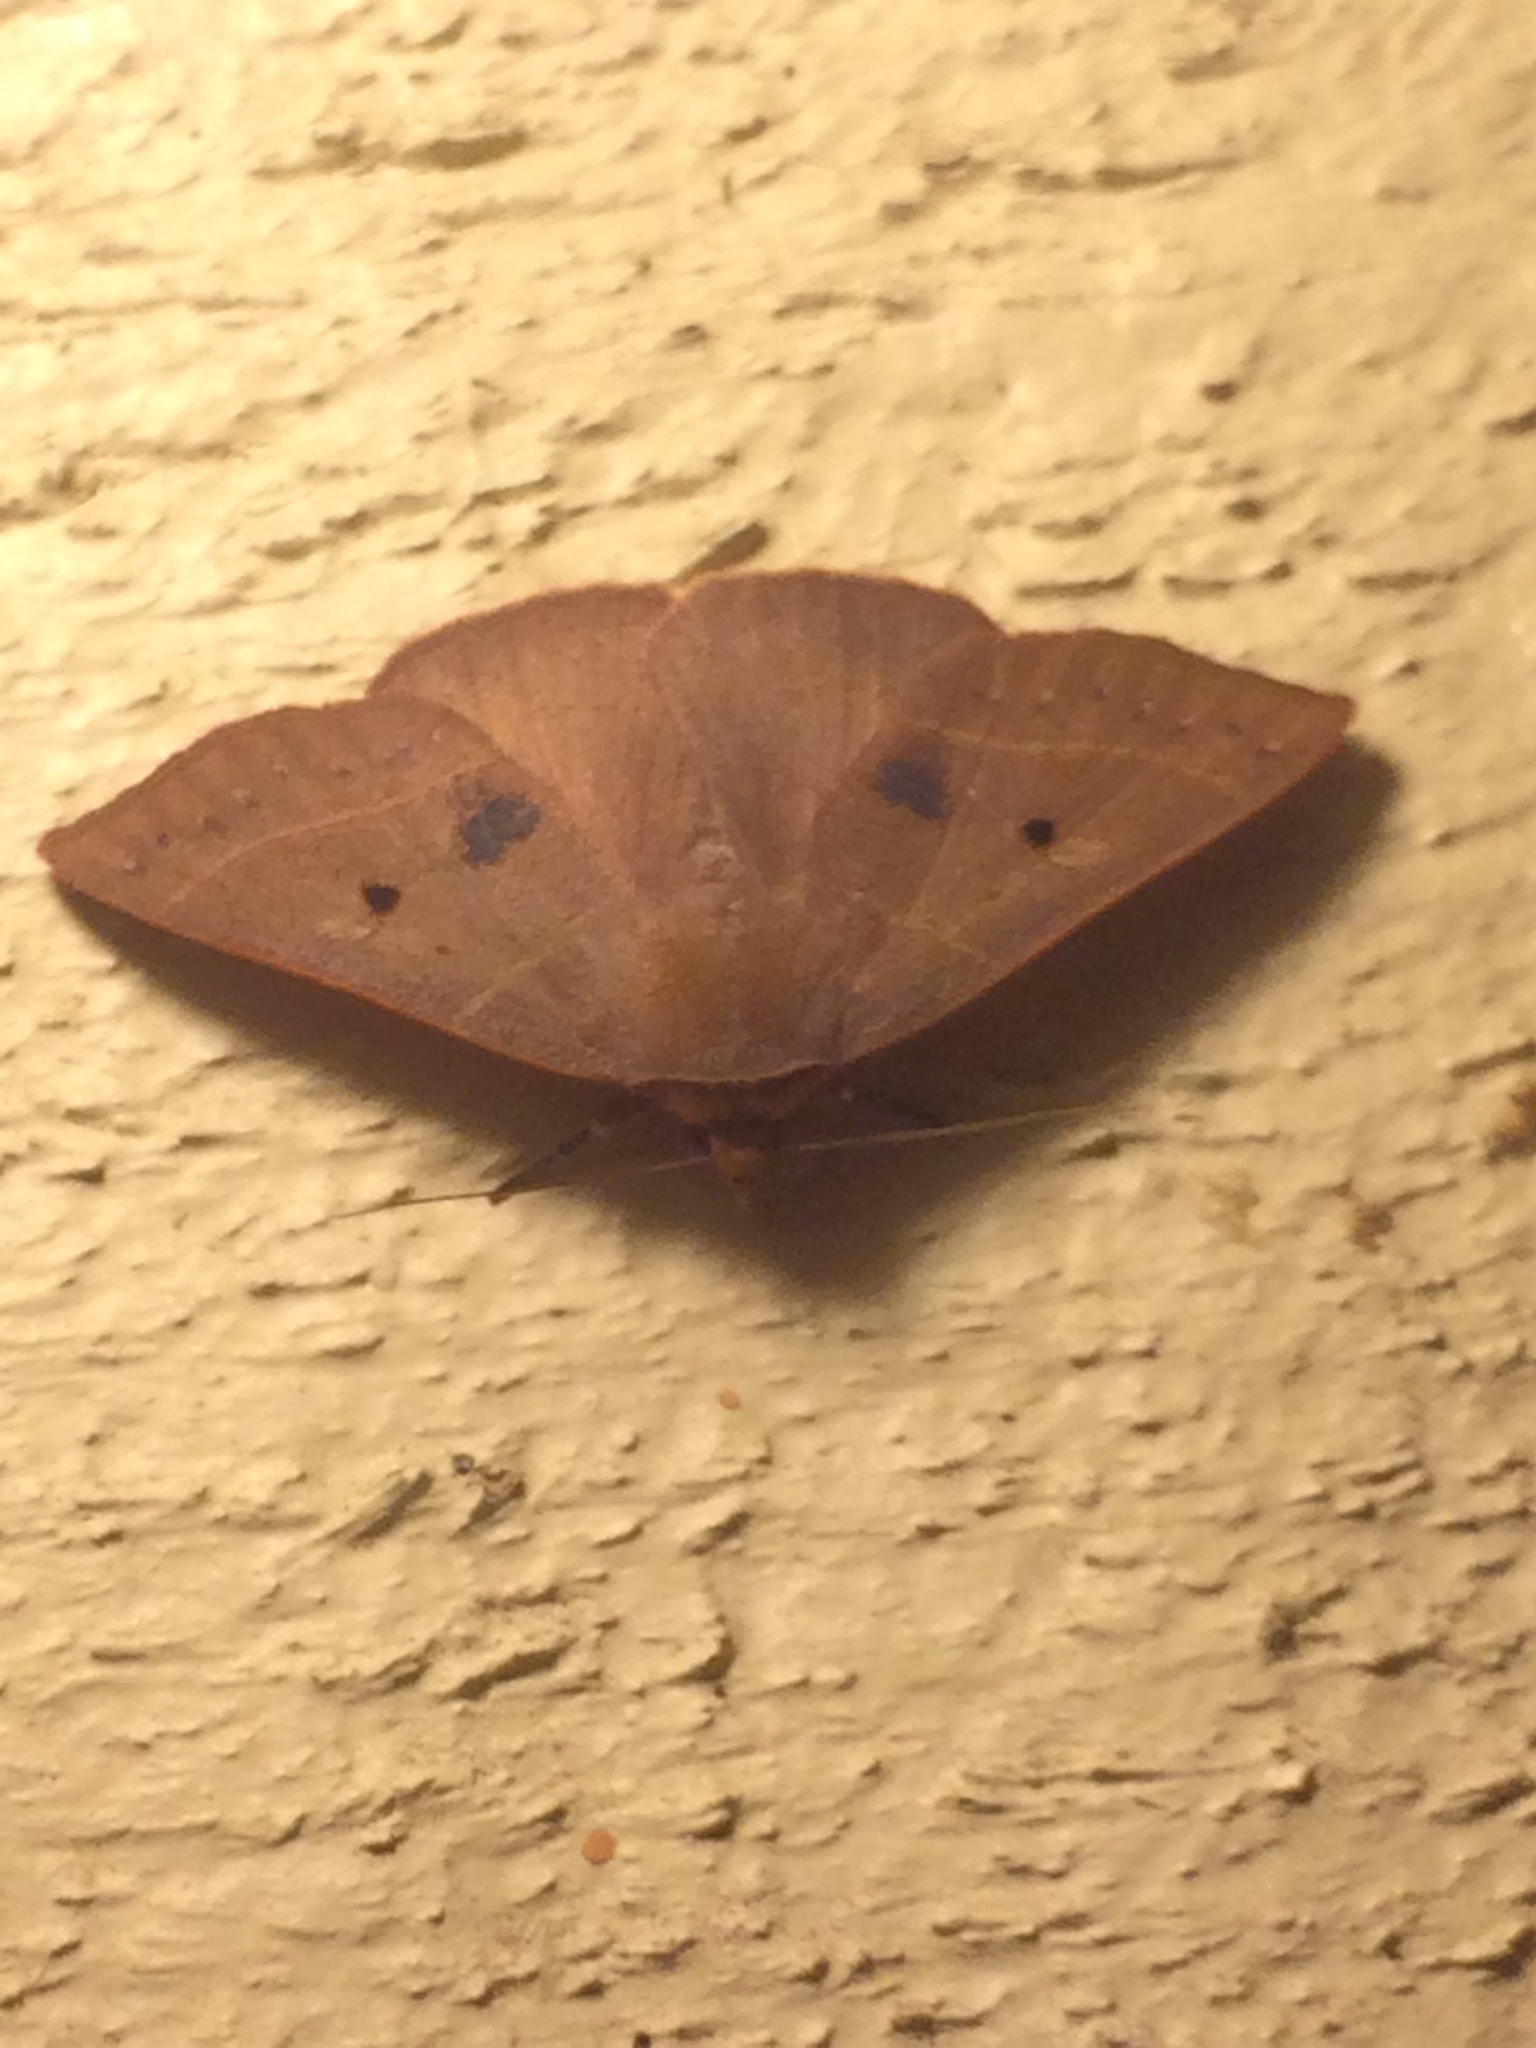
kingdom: Animalia
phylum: Arthropoda
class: Insecta
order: Lepidoptera
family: Erebidae
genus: Panopoda
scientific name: Panopoda rufimargo
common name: Red-lined panopoda moth
